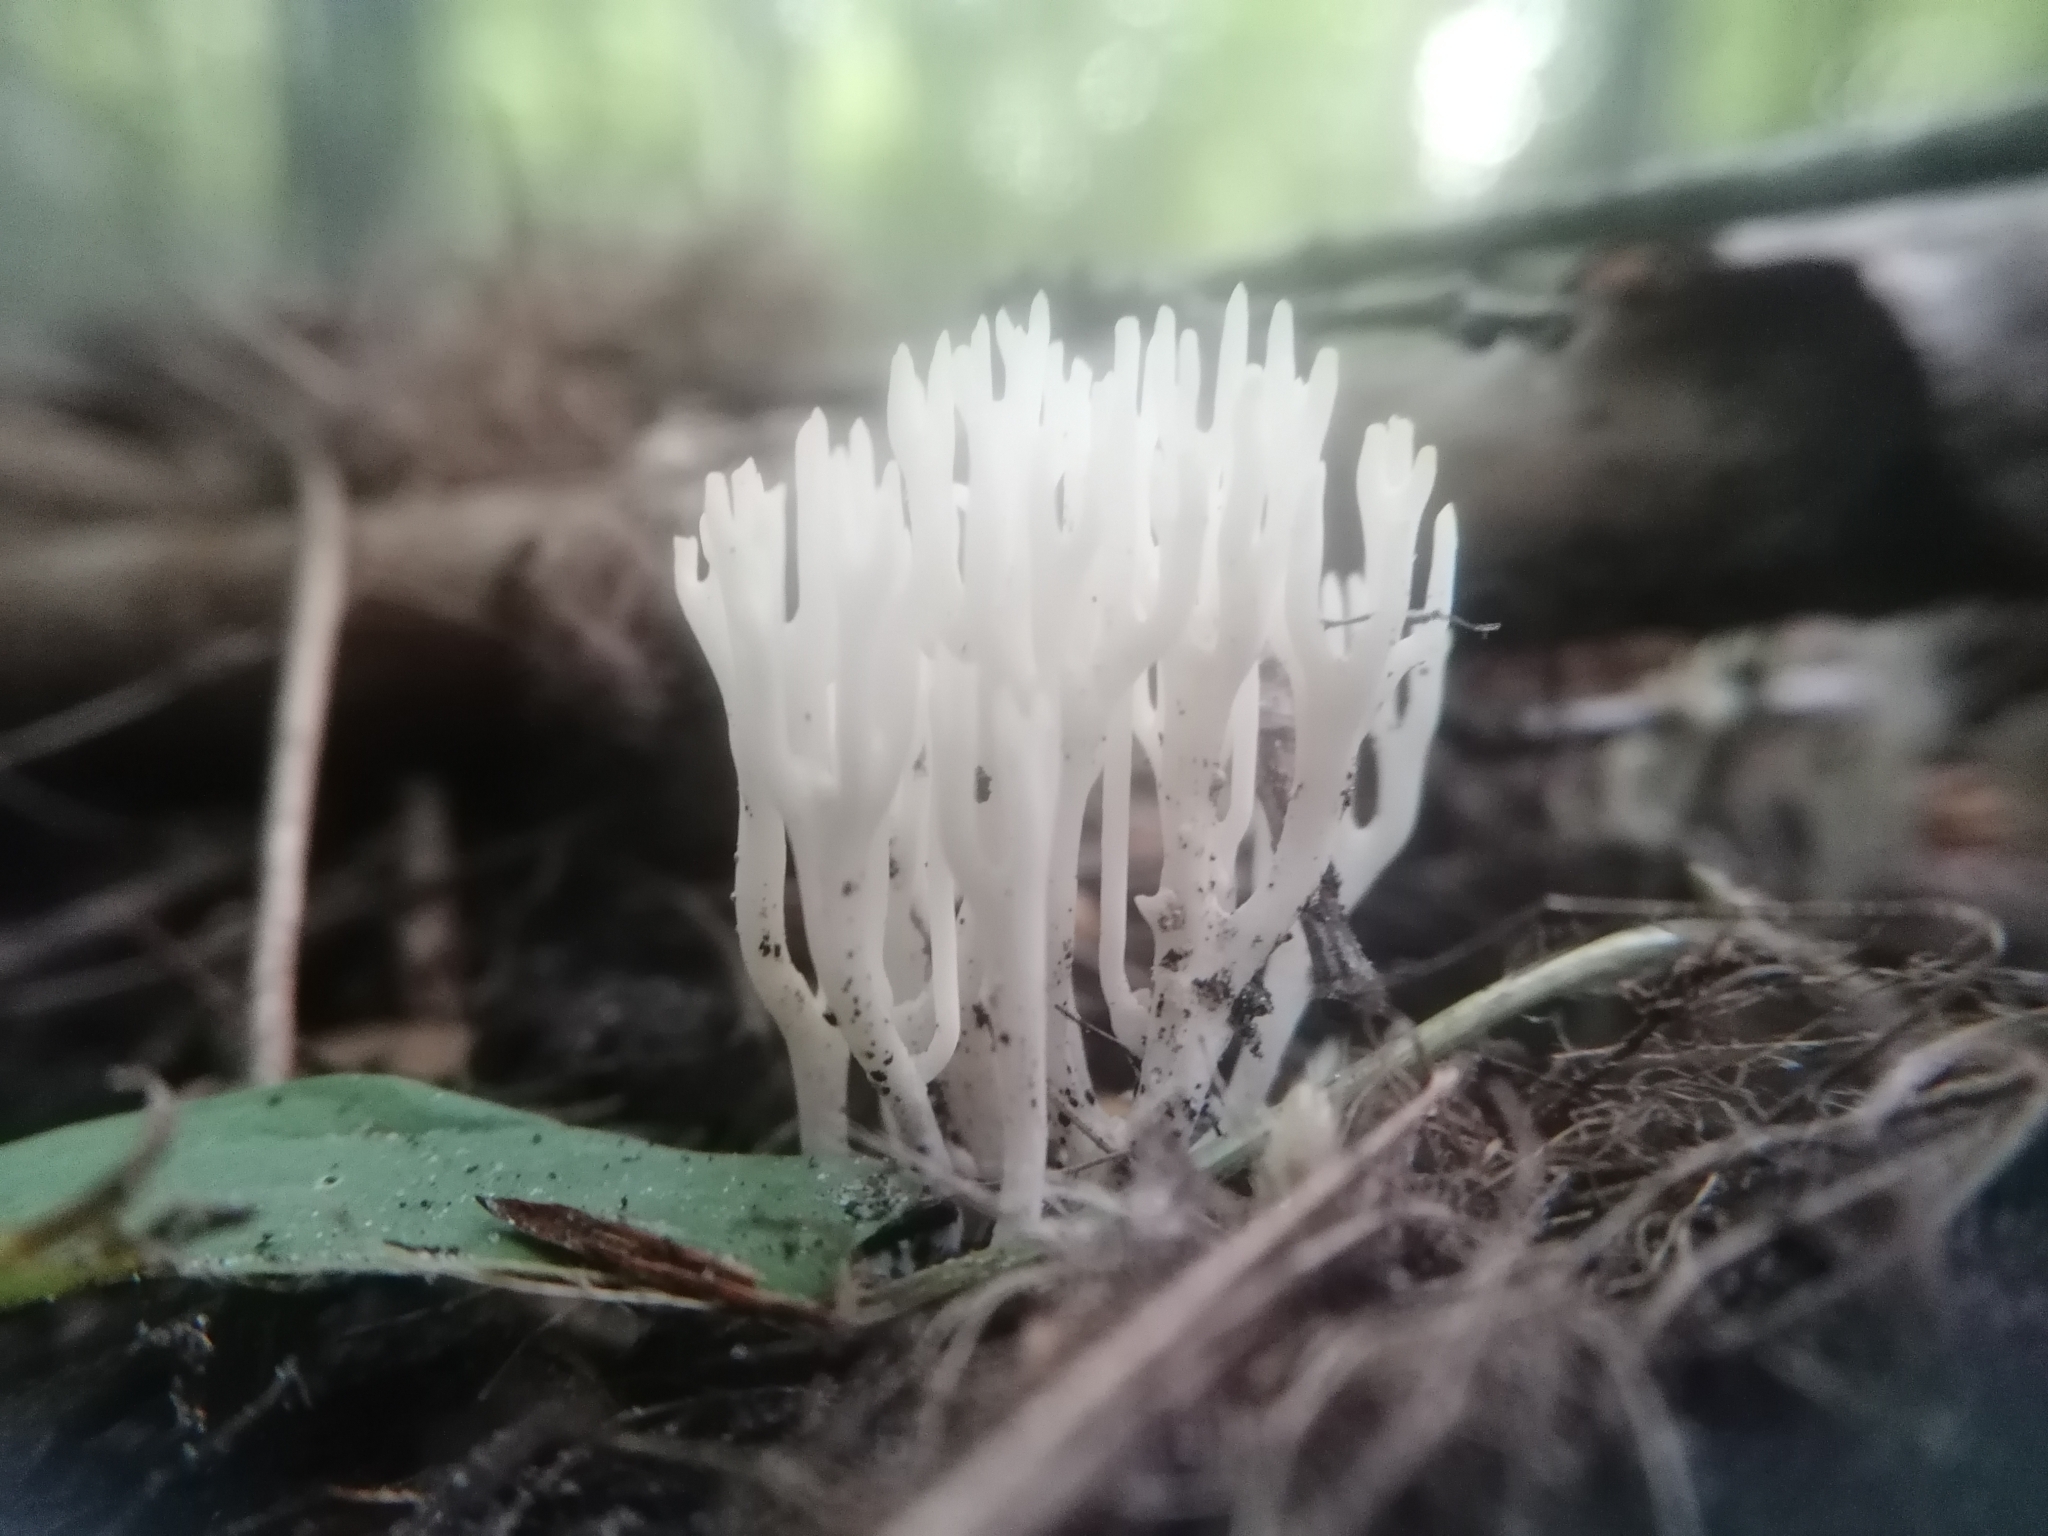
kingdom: Fungi
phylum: Basidiomycota
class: Agaricomycetes
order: Agaricales
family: Clavariaceae
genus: Ramariopsis
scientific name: Ramariopsis kunzei
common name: Ivory coral
